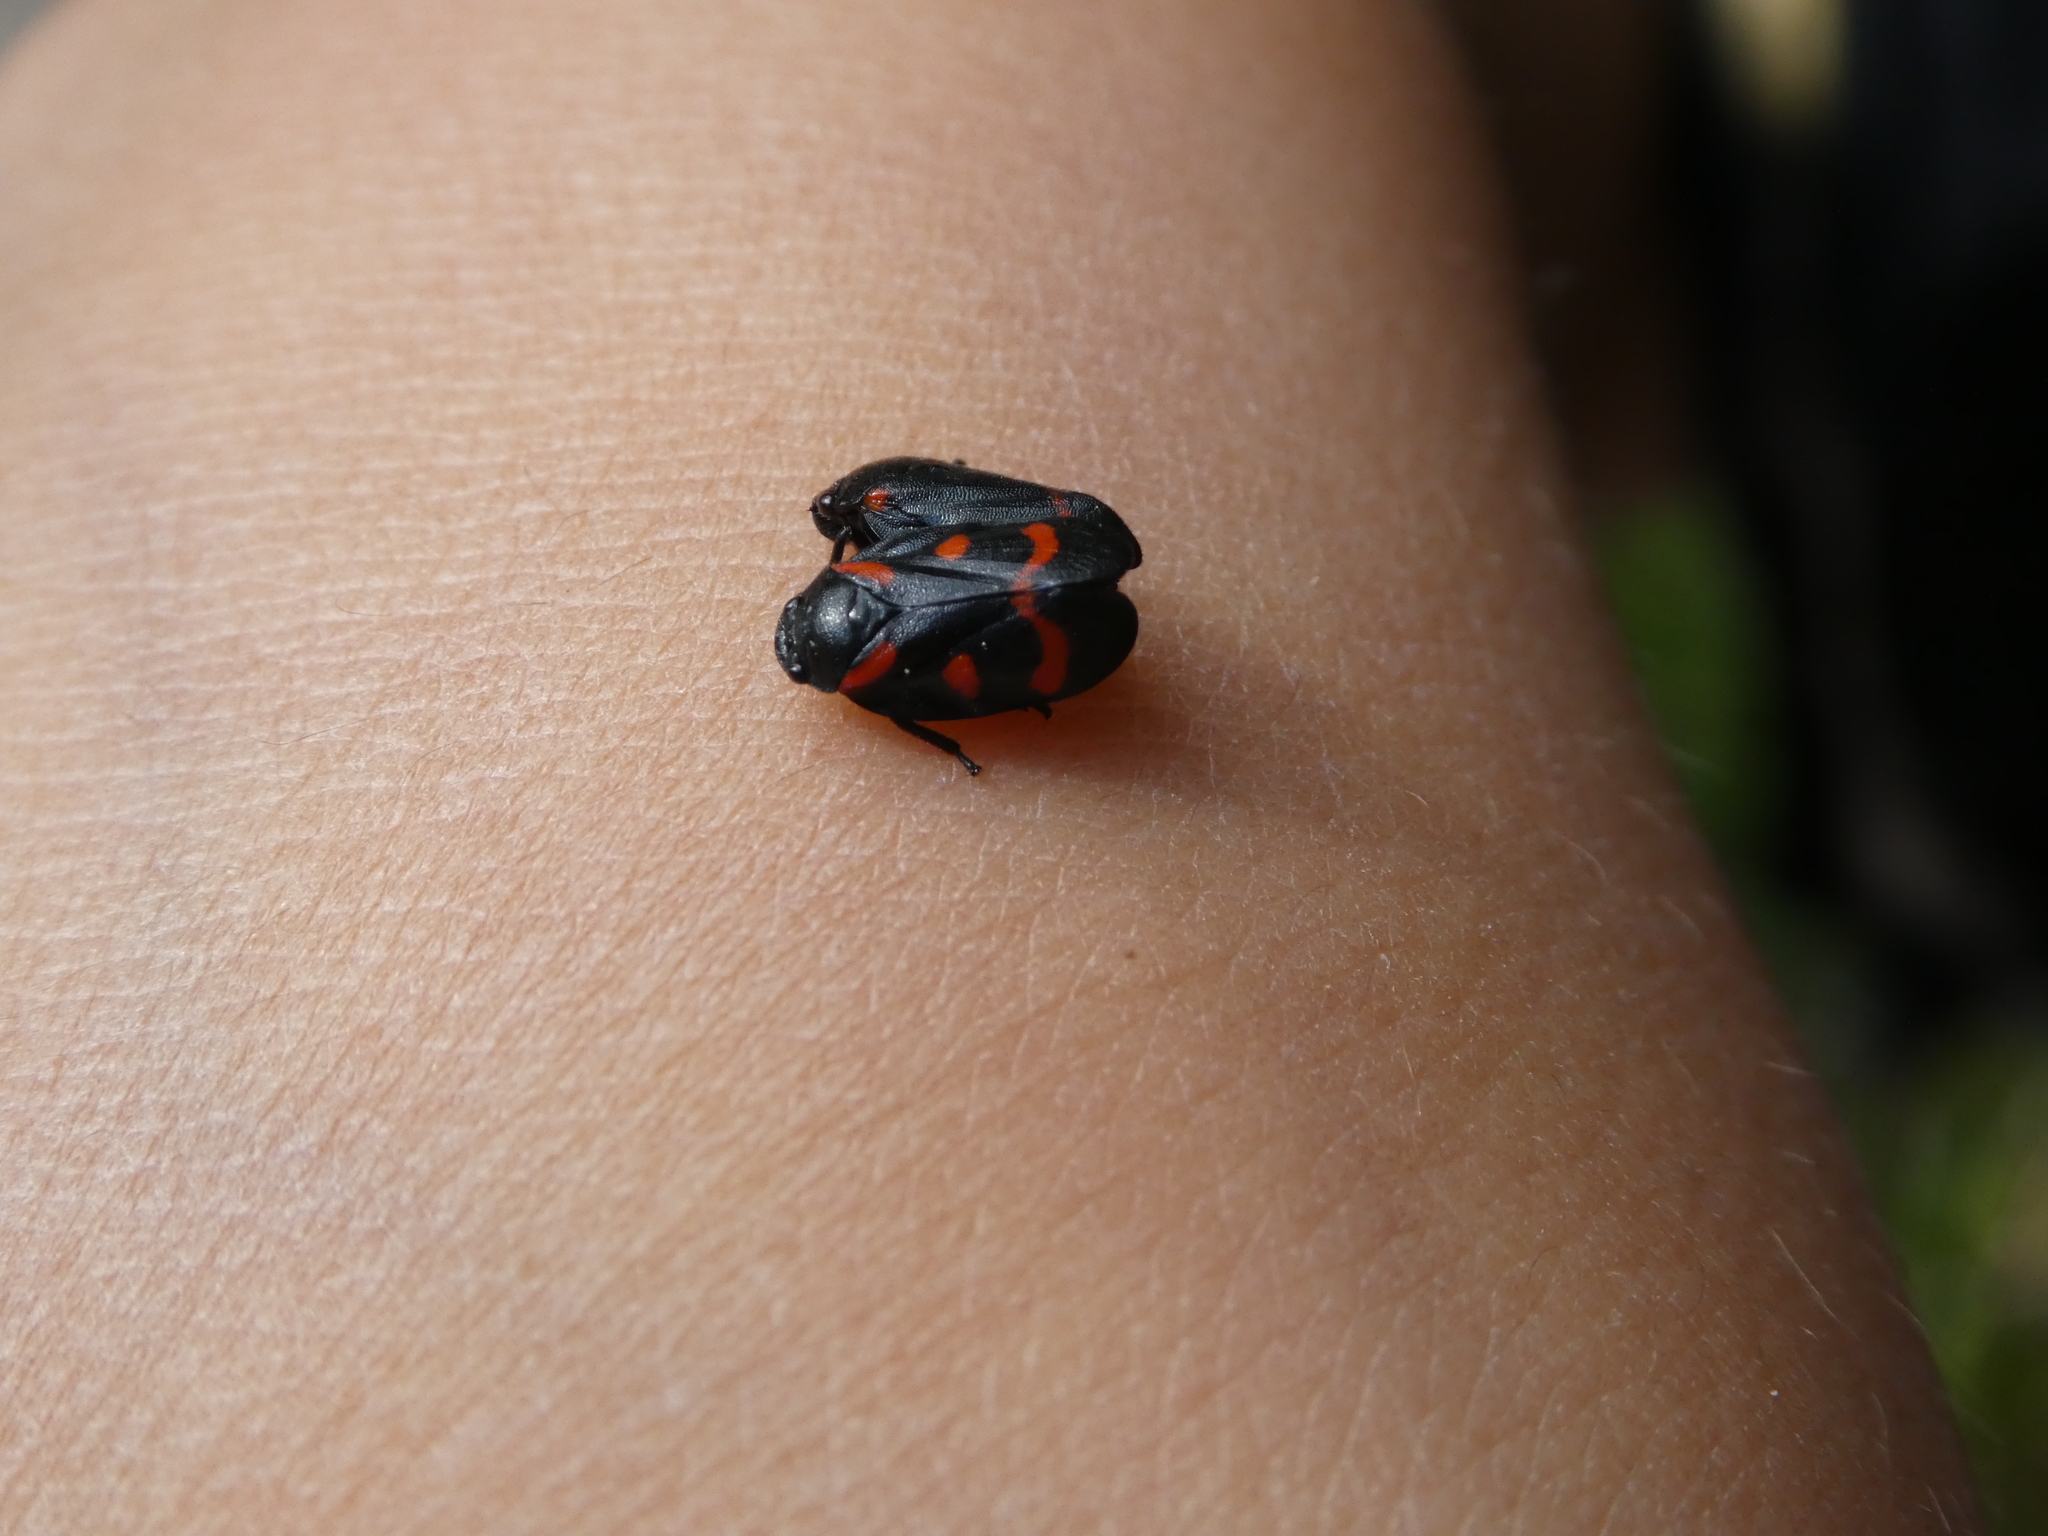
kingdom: Animalia
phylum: Arthropoda
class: Insecta
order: Hemiptera
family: Cercopidae
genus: Cercopis
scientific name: Cercopis vulnerata
